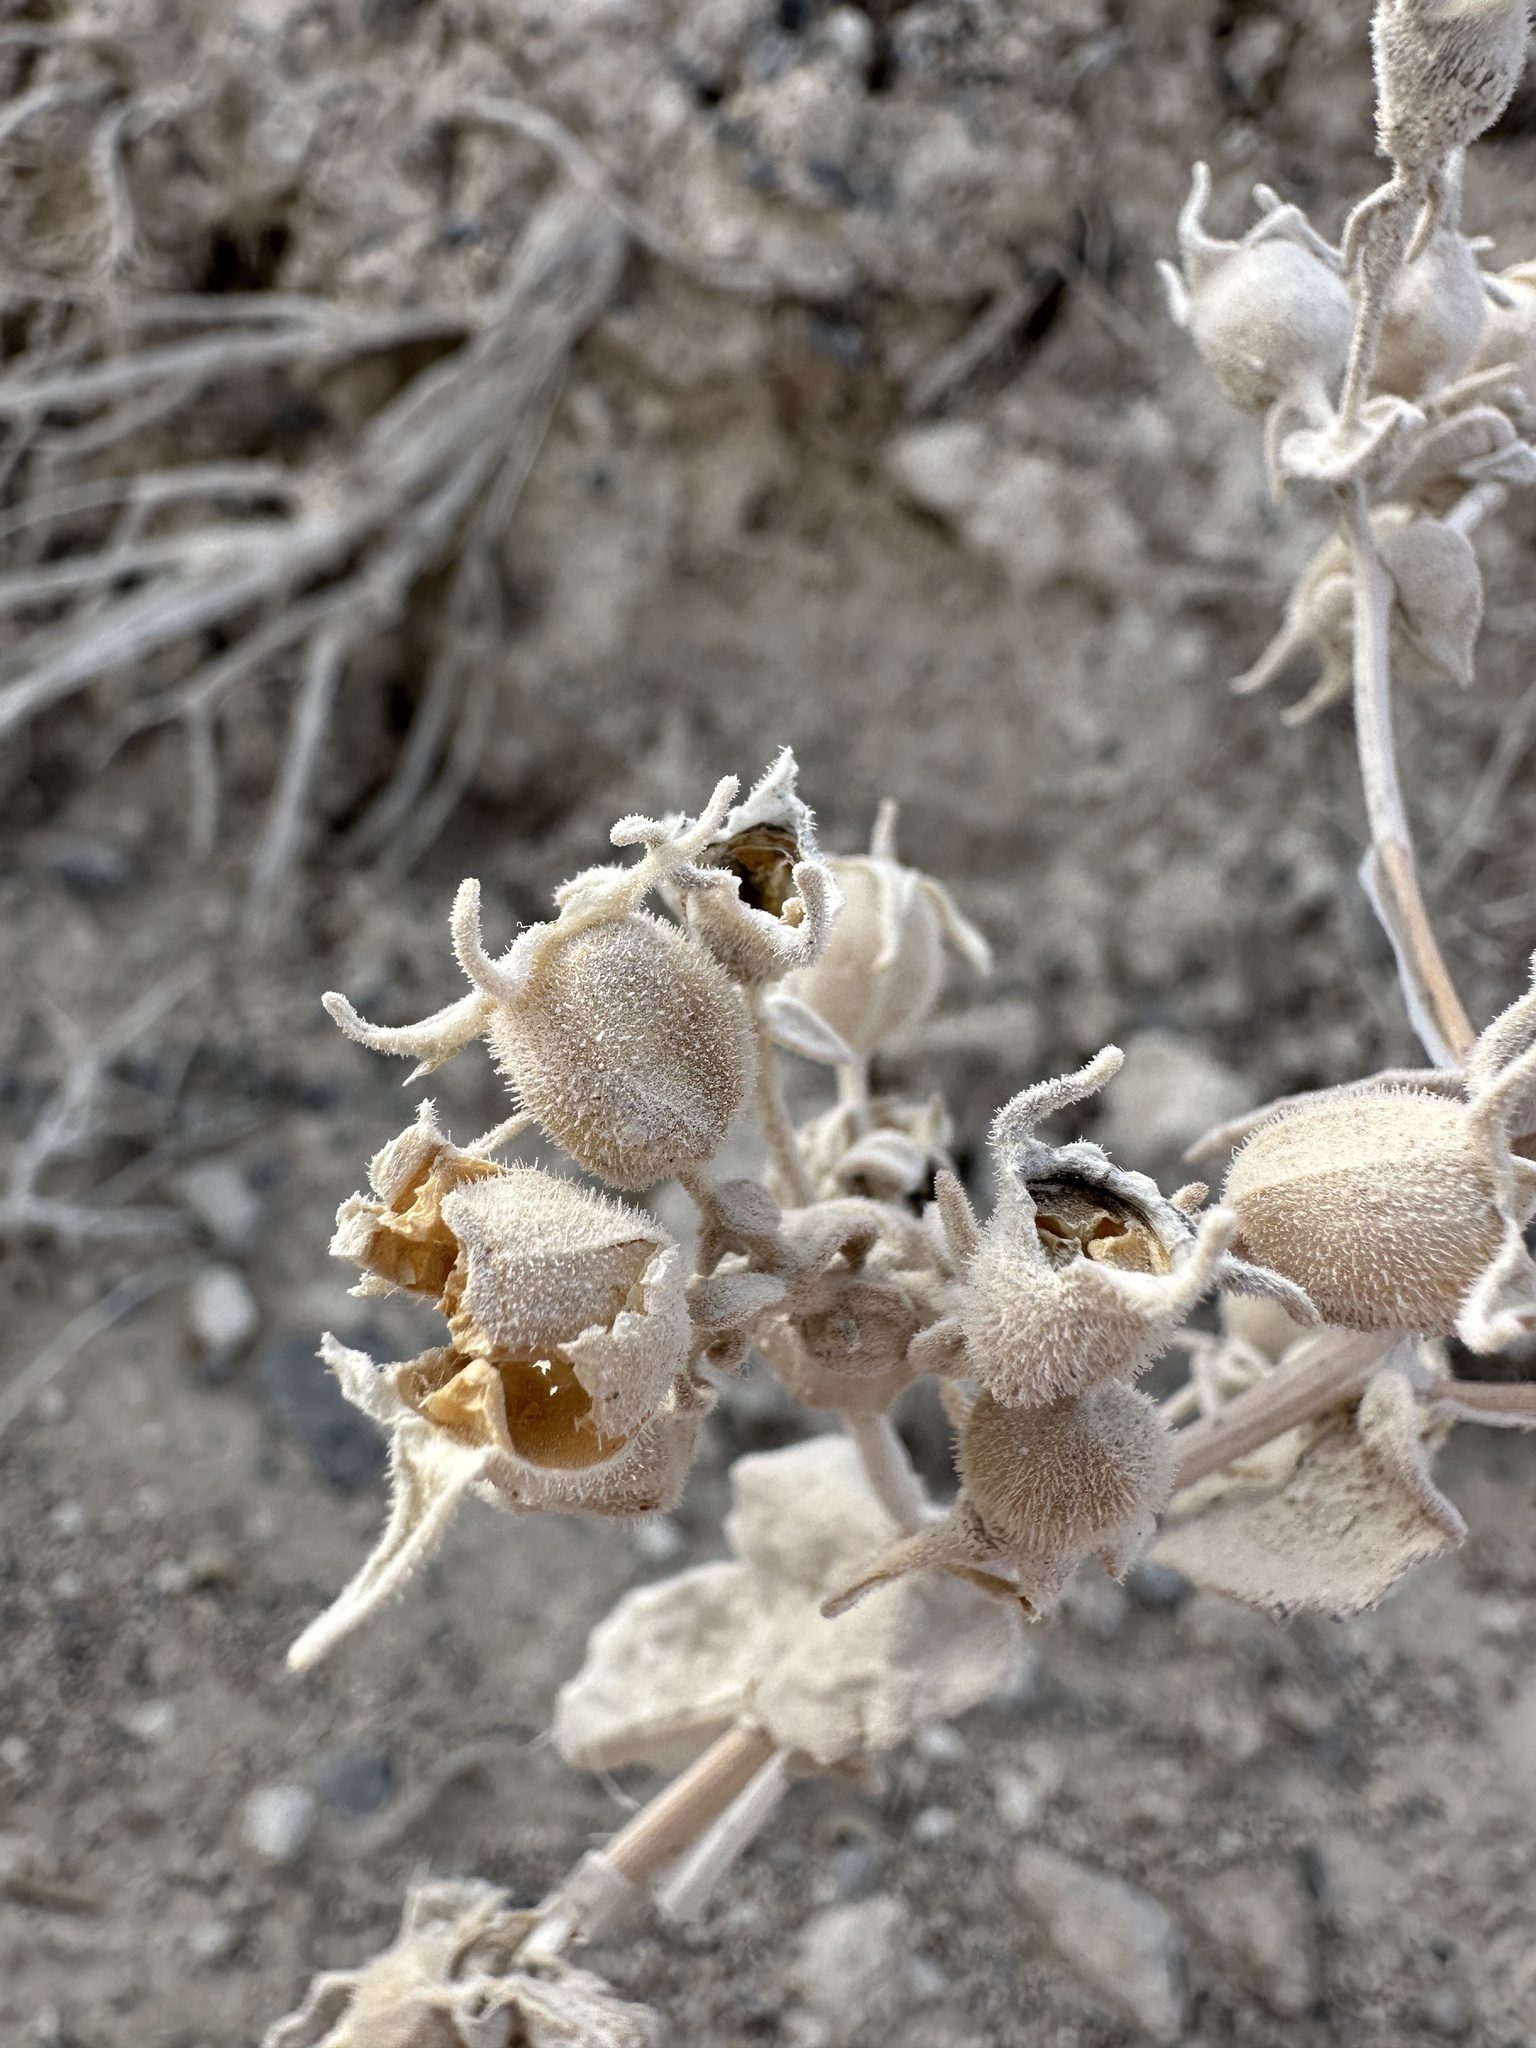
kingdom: Plantae
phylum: Tracheophyta
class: Magnoliopsida
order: Cornales
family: Loasaceae
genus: Mentzelia
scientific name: Mentzelia leucophylla
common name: Ash meadows blazingstar
